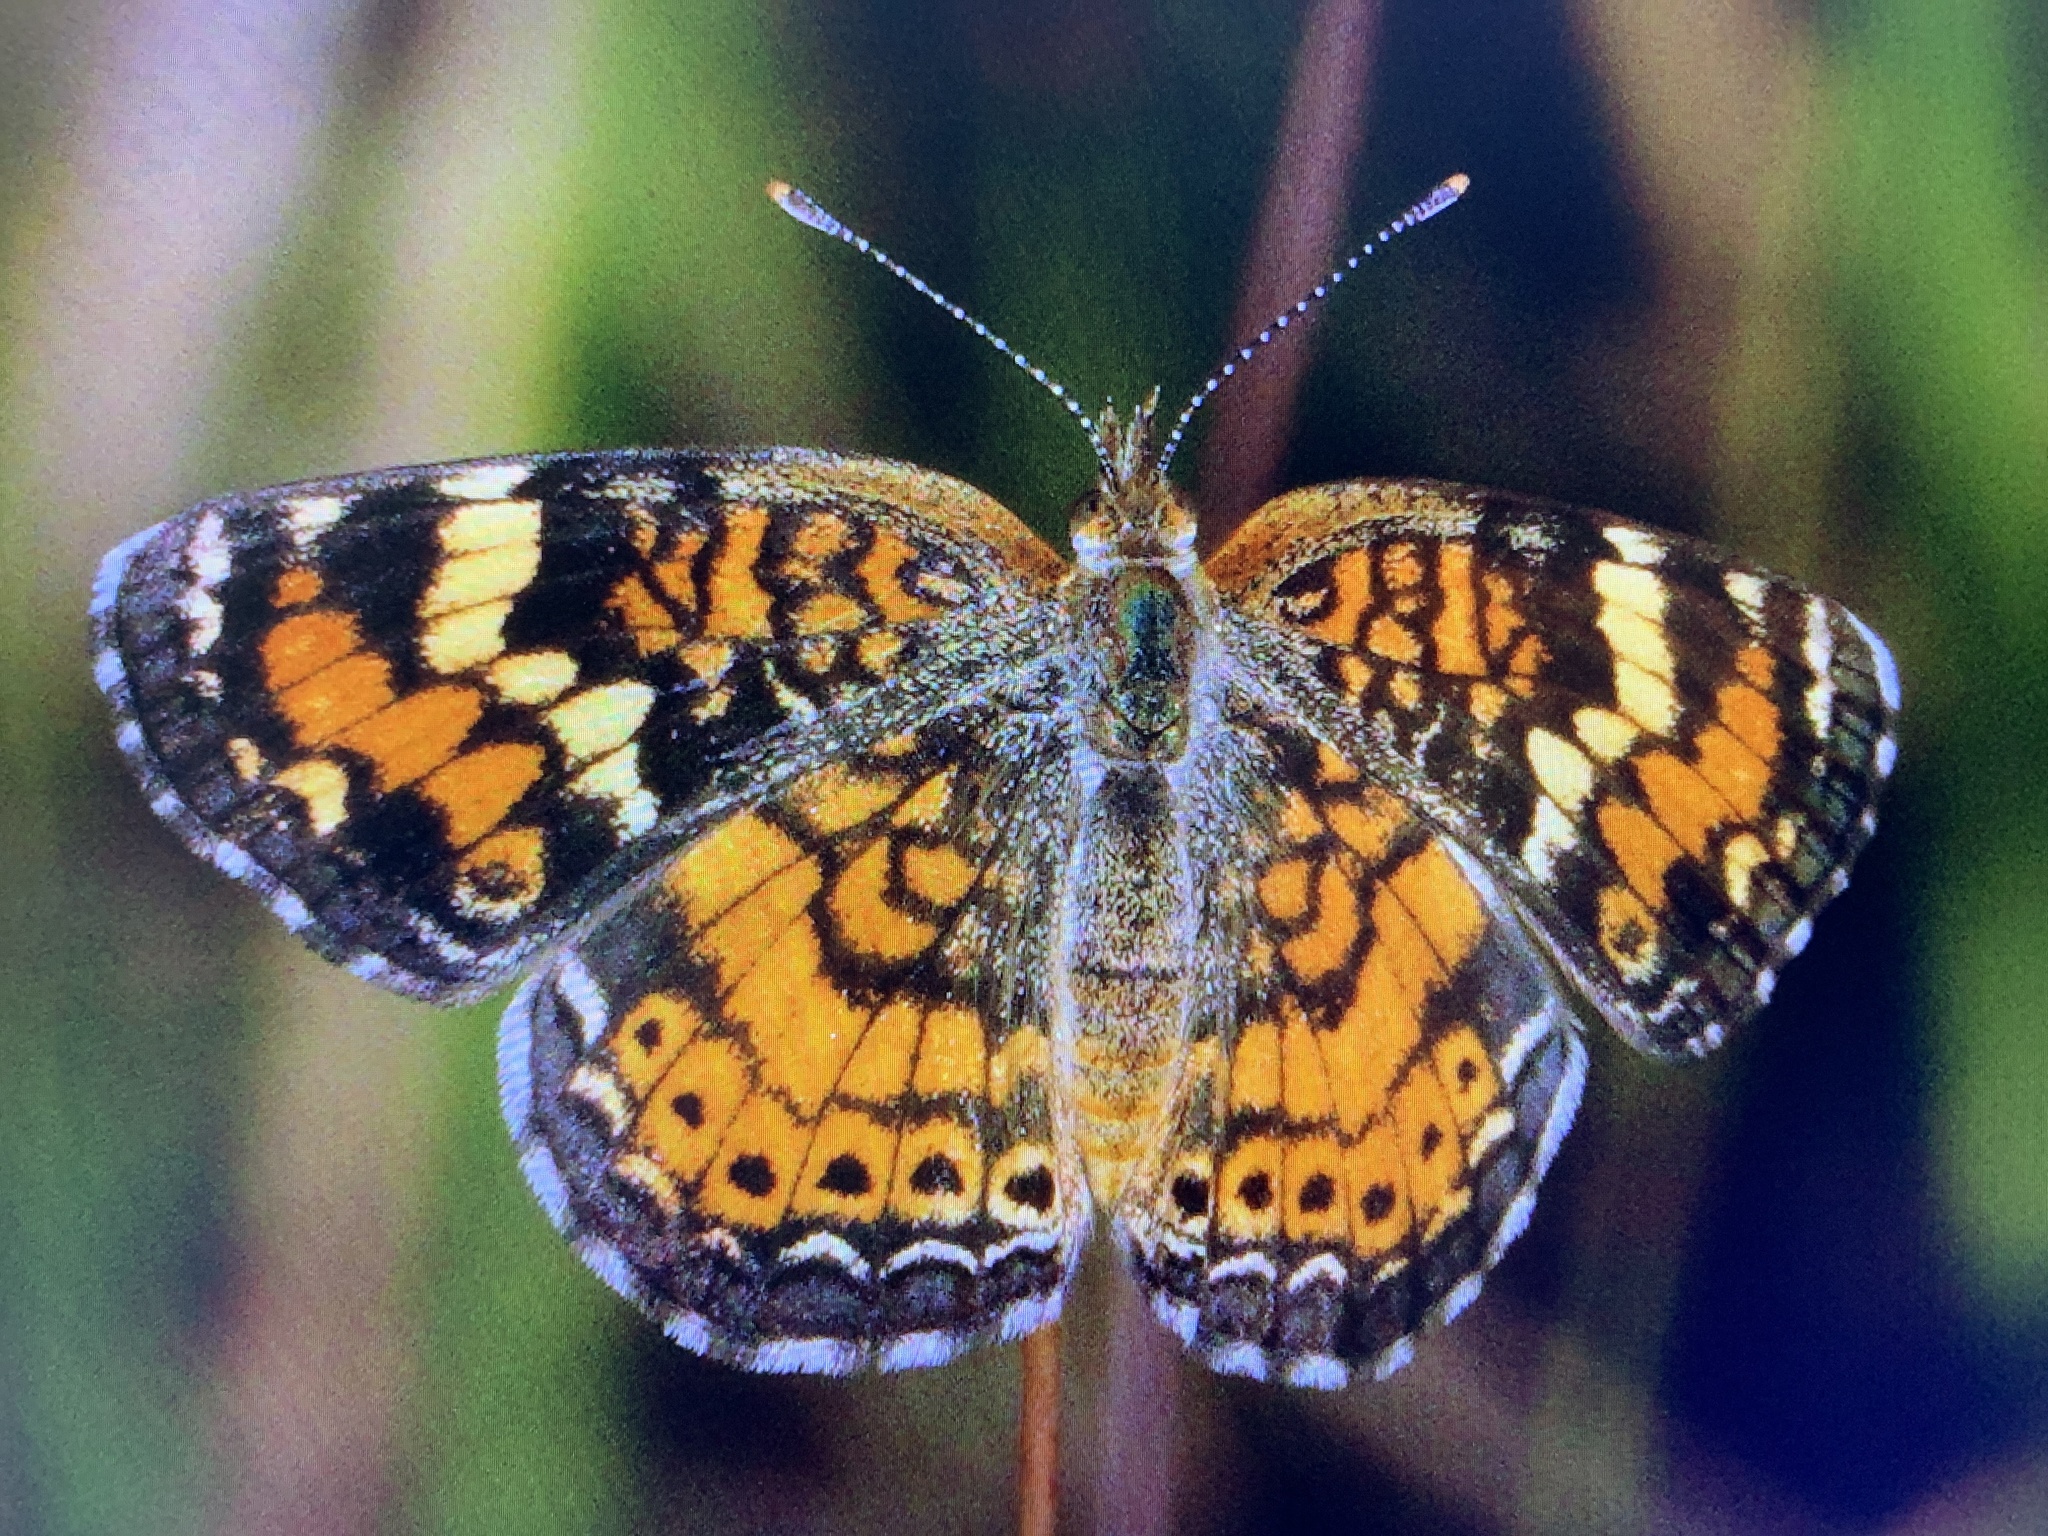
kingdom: Animalia
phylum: Arthropoda
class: Insecta
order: Lepidoptera
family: Nymphalidae
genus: Phyciodes
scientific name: Phyciodes phaon
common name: Phaon crescent
